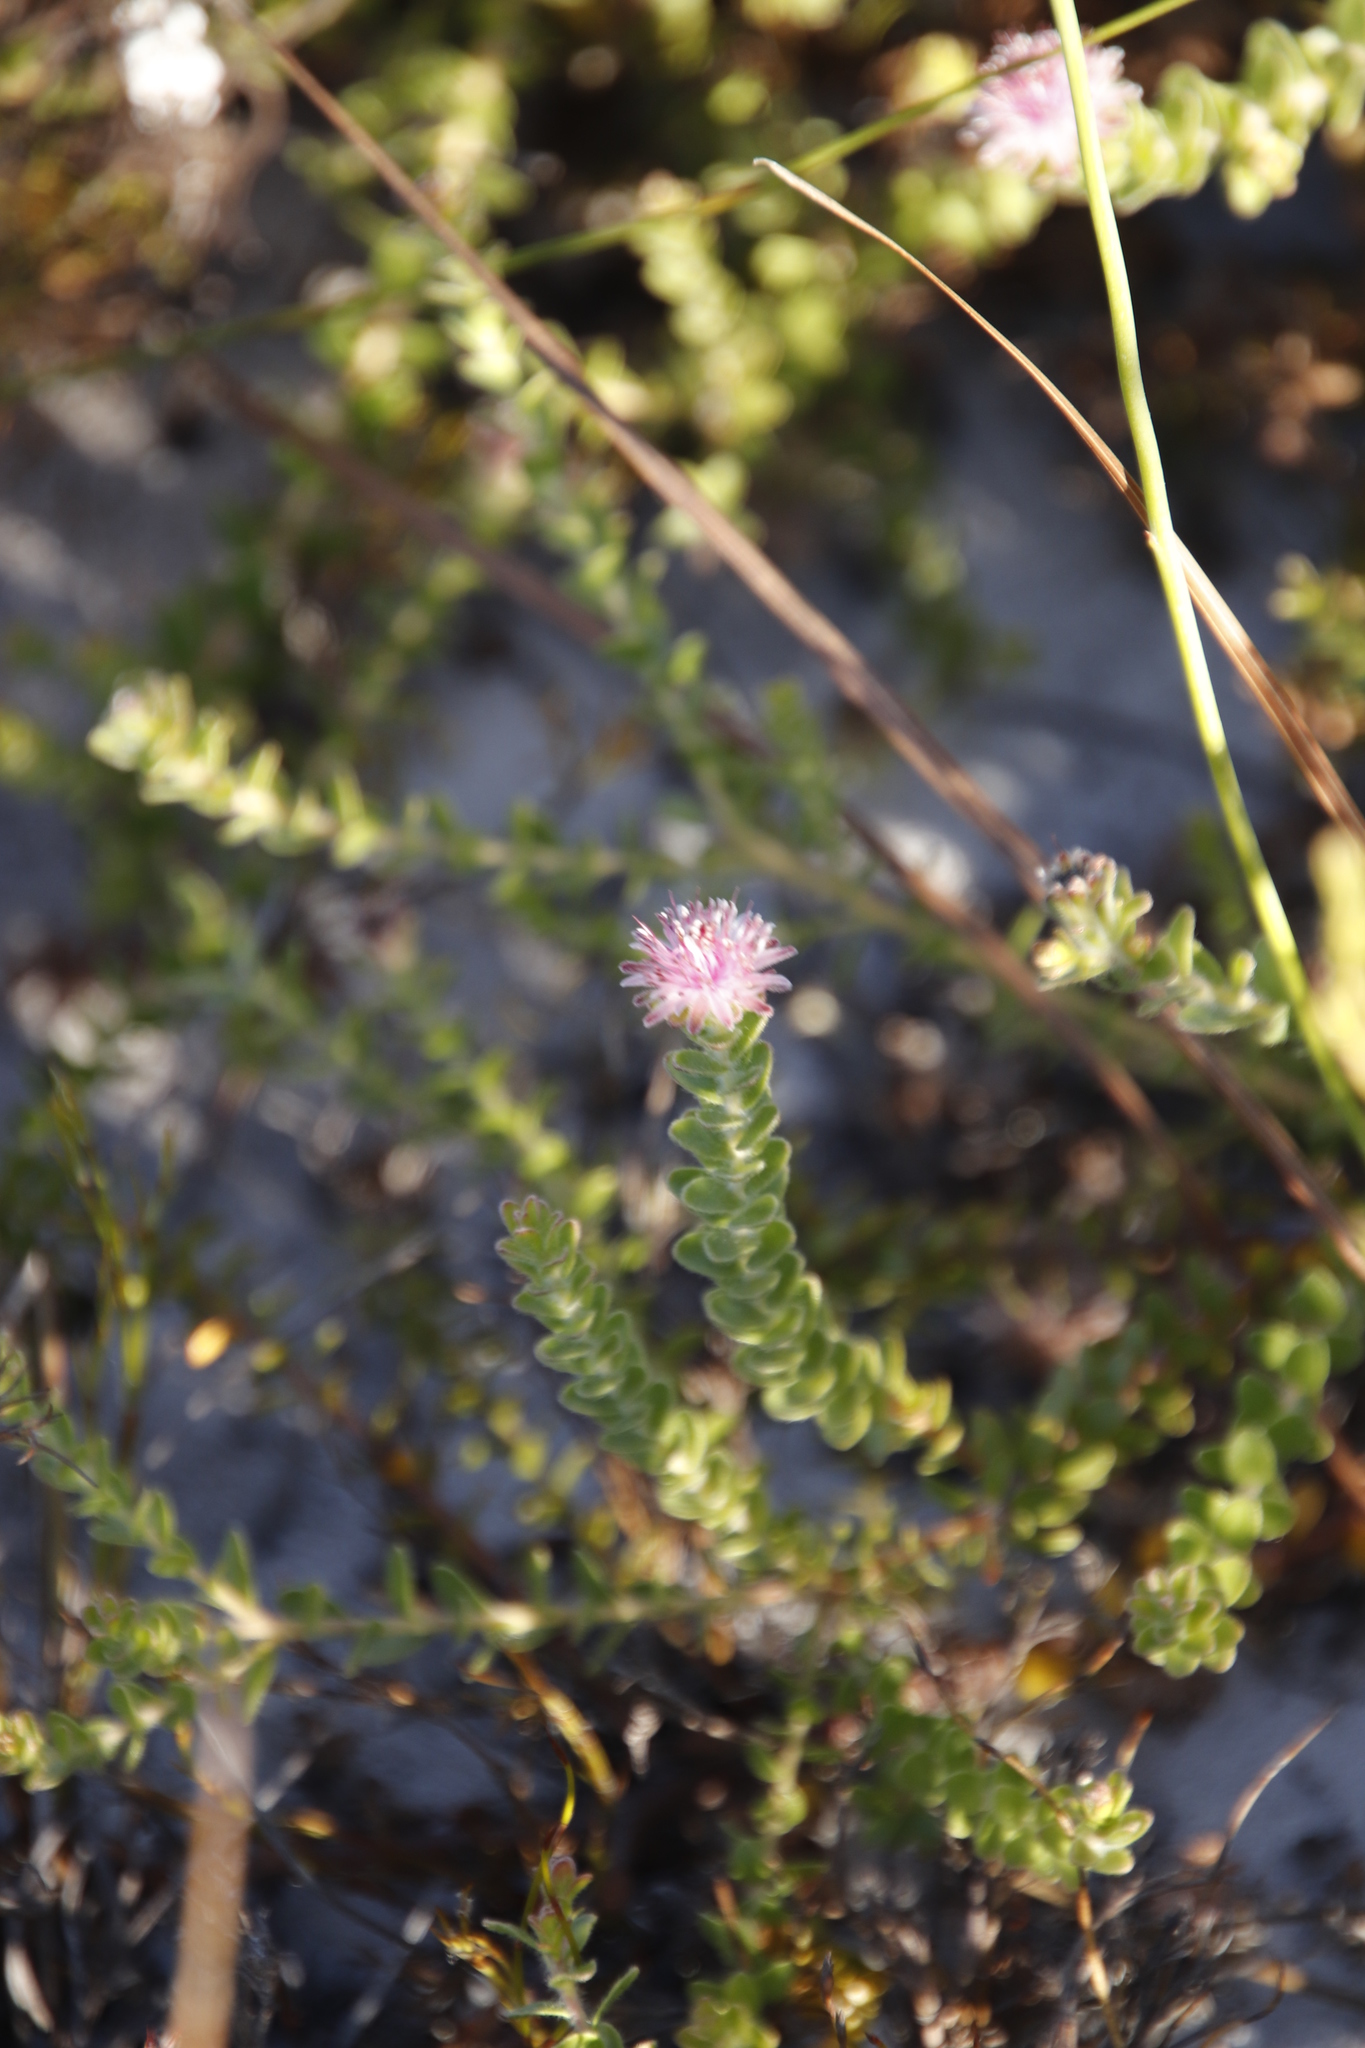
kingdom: Plantae
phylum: Tracheophyta
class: Magnoliopsida
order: Proteales
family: Proteaceae
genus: Diastella
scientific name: Diastella divaricata
